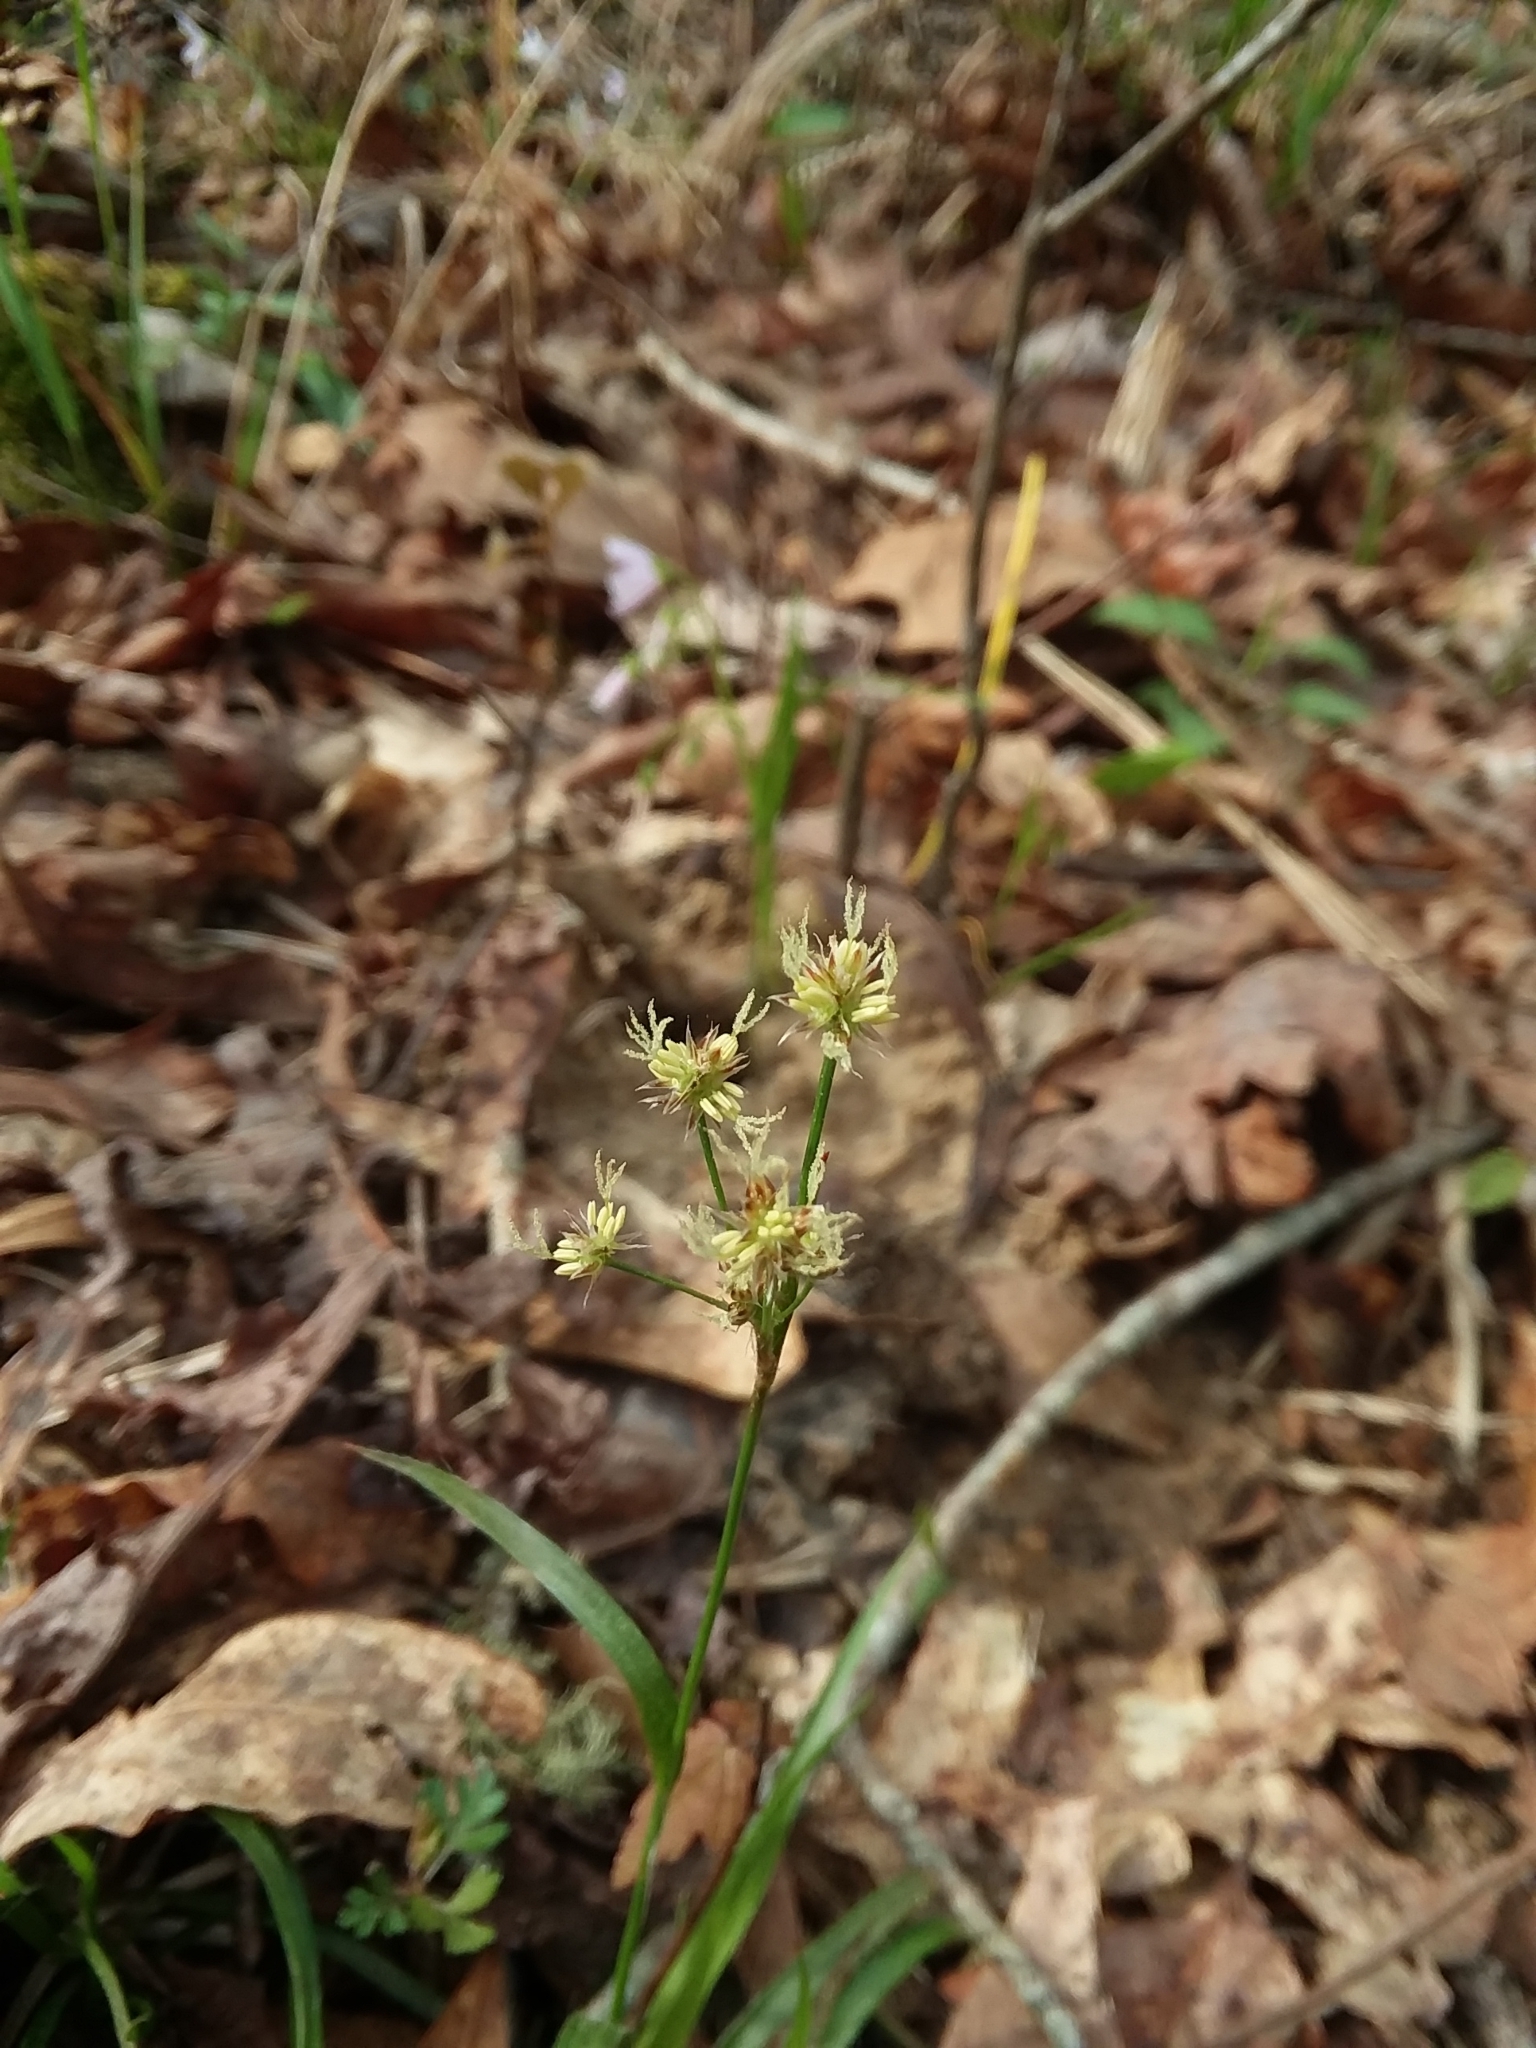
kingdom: Plantae
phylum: Tracheophyta
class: Liliopsida
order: Poales
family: Juncaceae
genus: Luzula
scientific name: Luzula echinata
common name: Hedgehog woodrush
